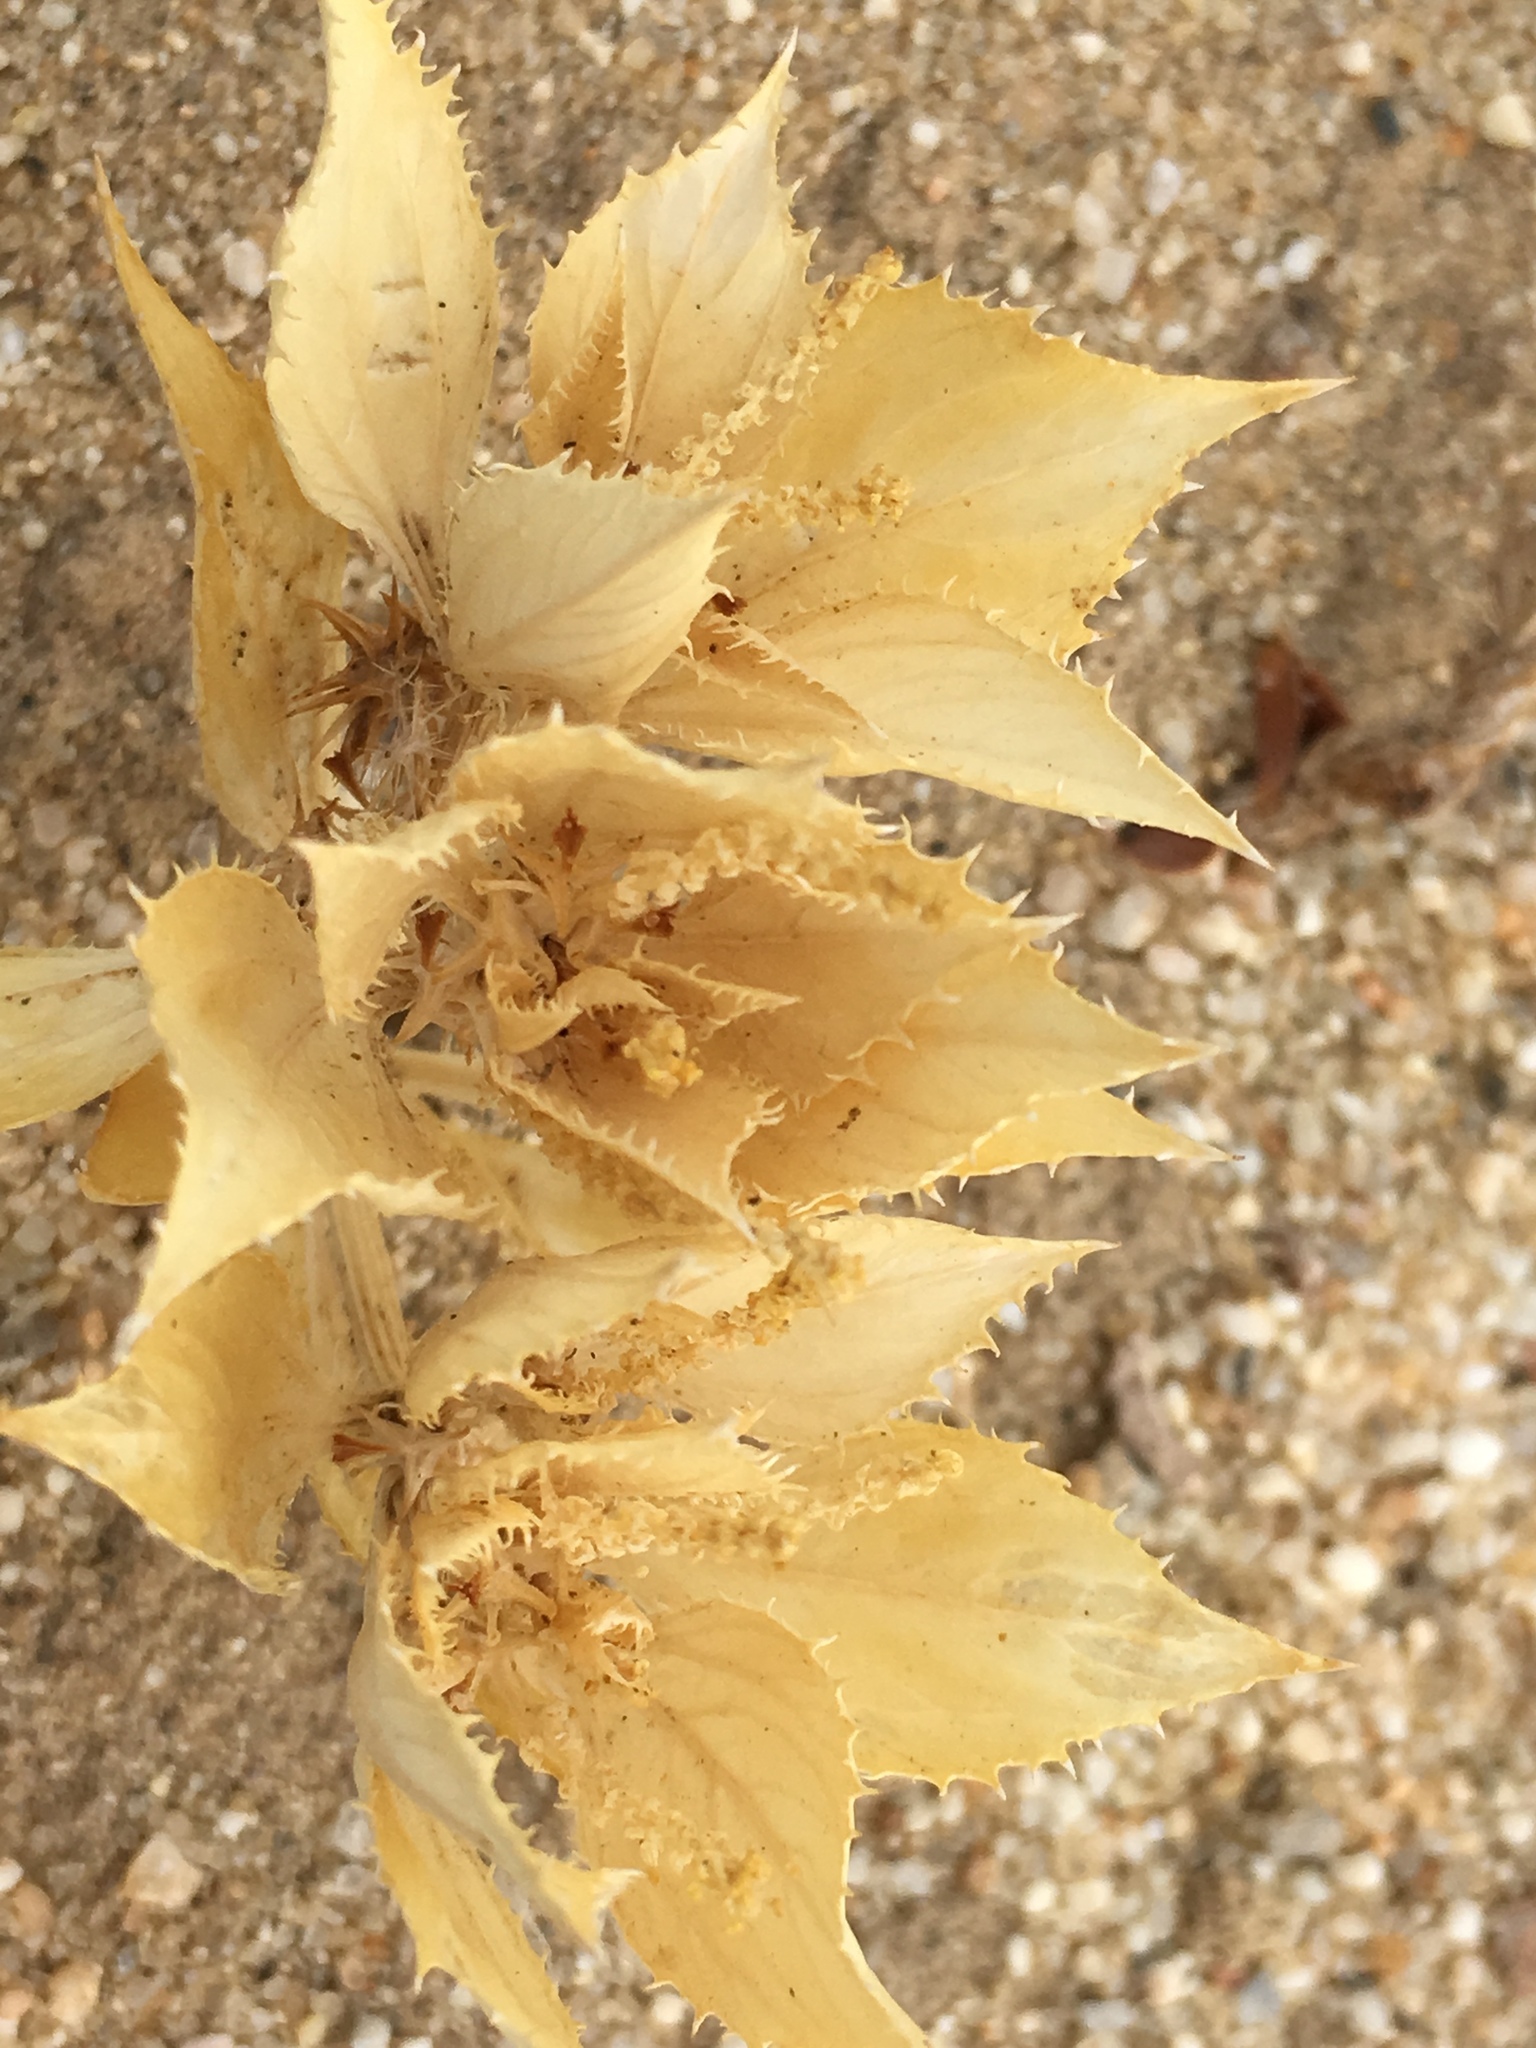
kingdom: Plantae
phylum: Tracheophyta
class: Magnoliopsida
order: Malpighiales
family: Euphorbiaceae
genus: Stillingia
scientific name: Stillingia spinulosa
